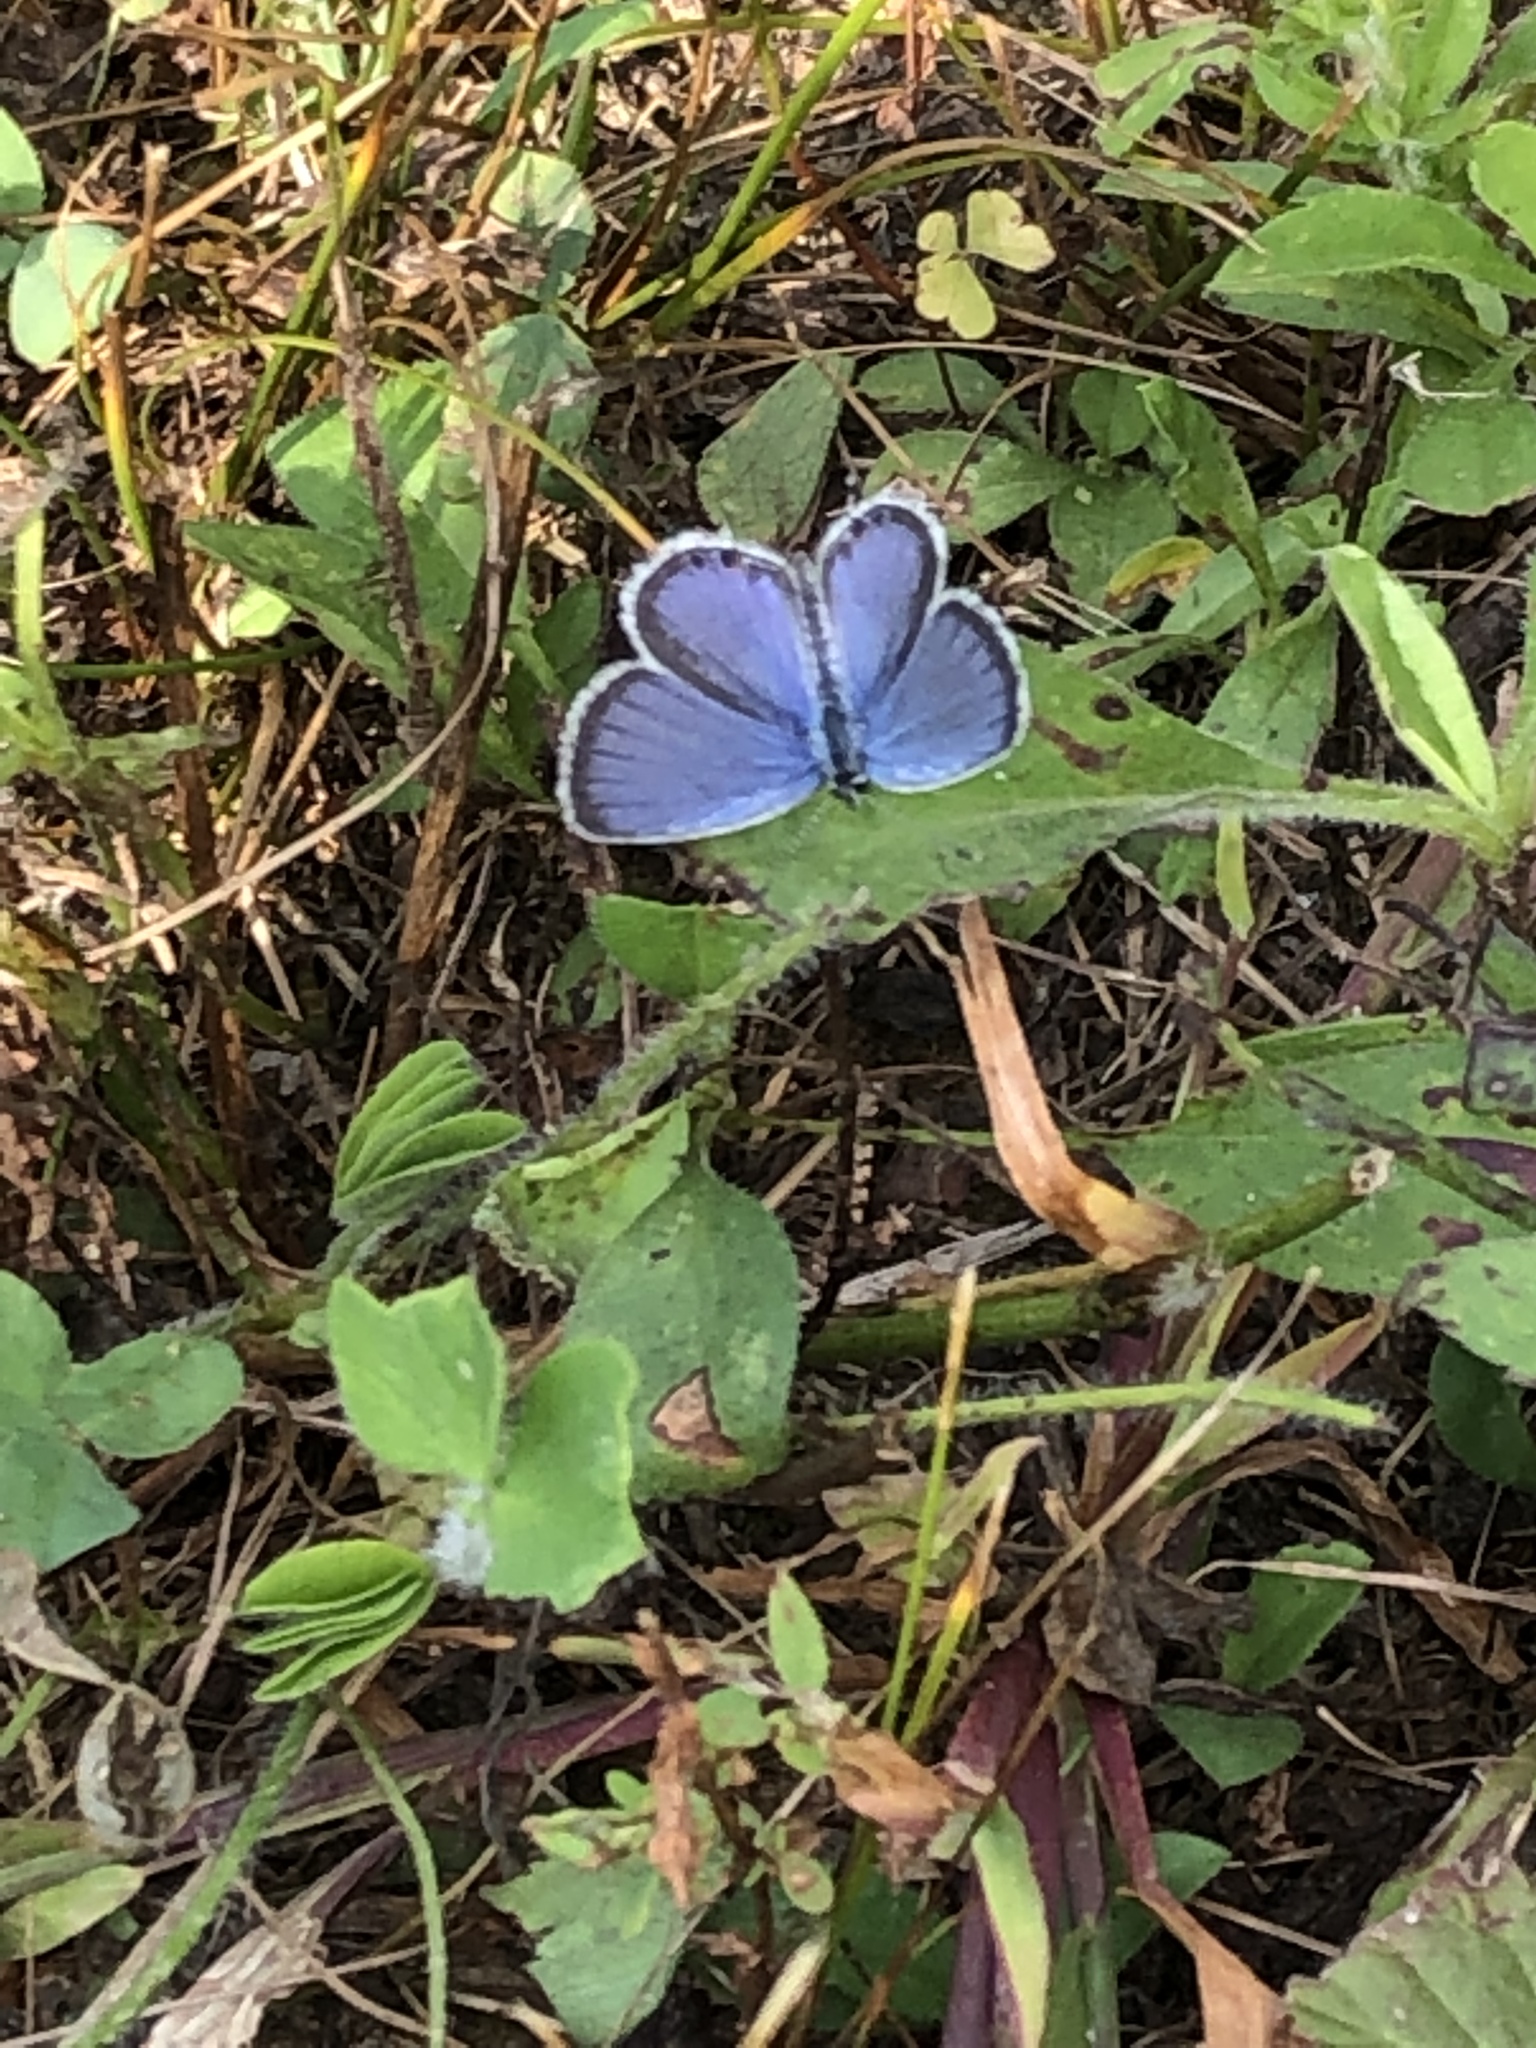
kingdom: Animalia
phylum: Arthropoda
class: Insecta
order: Lepidoptera
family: Lycaenidae
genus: Elkalyce
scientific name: Elkalyce comyntas
